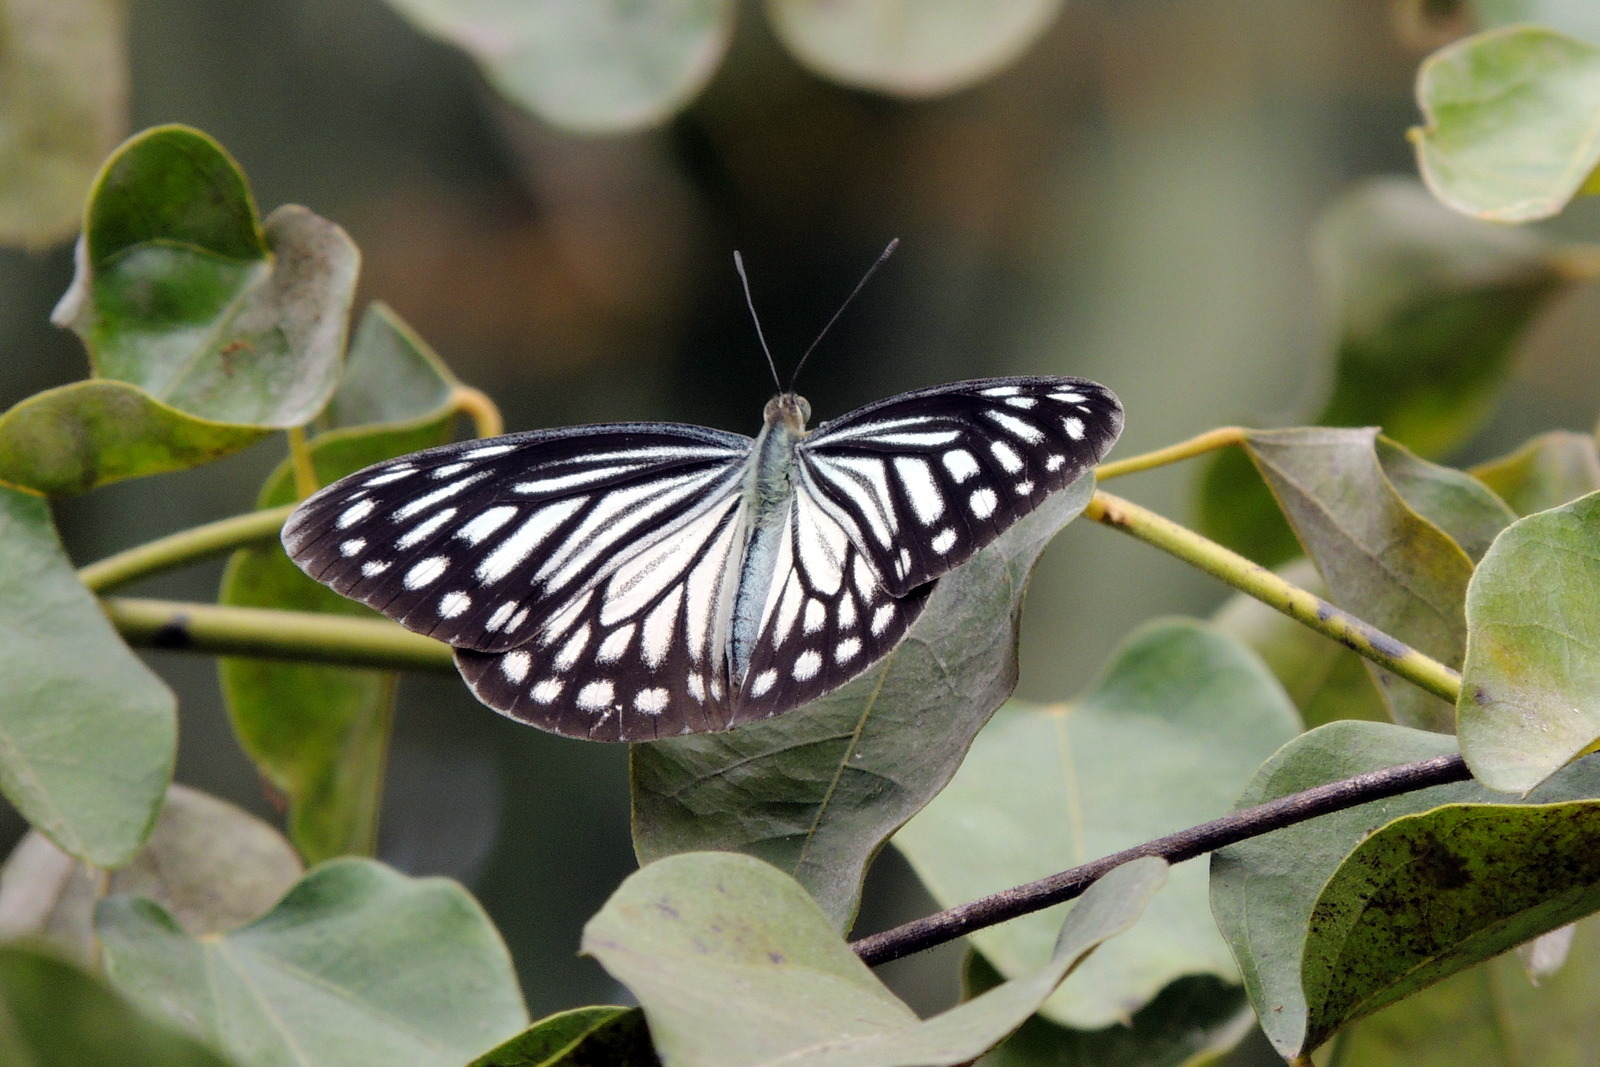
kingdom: Animalia
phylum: Arthropoda
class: Insecta
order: Lepidoptera
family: Pieridae
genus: Pareronia
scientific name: Pareronia hippia
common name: Indian wanderer
